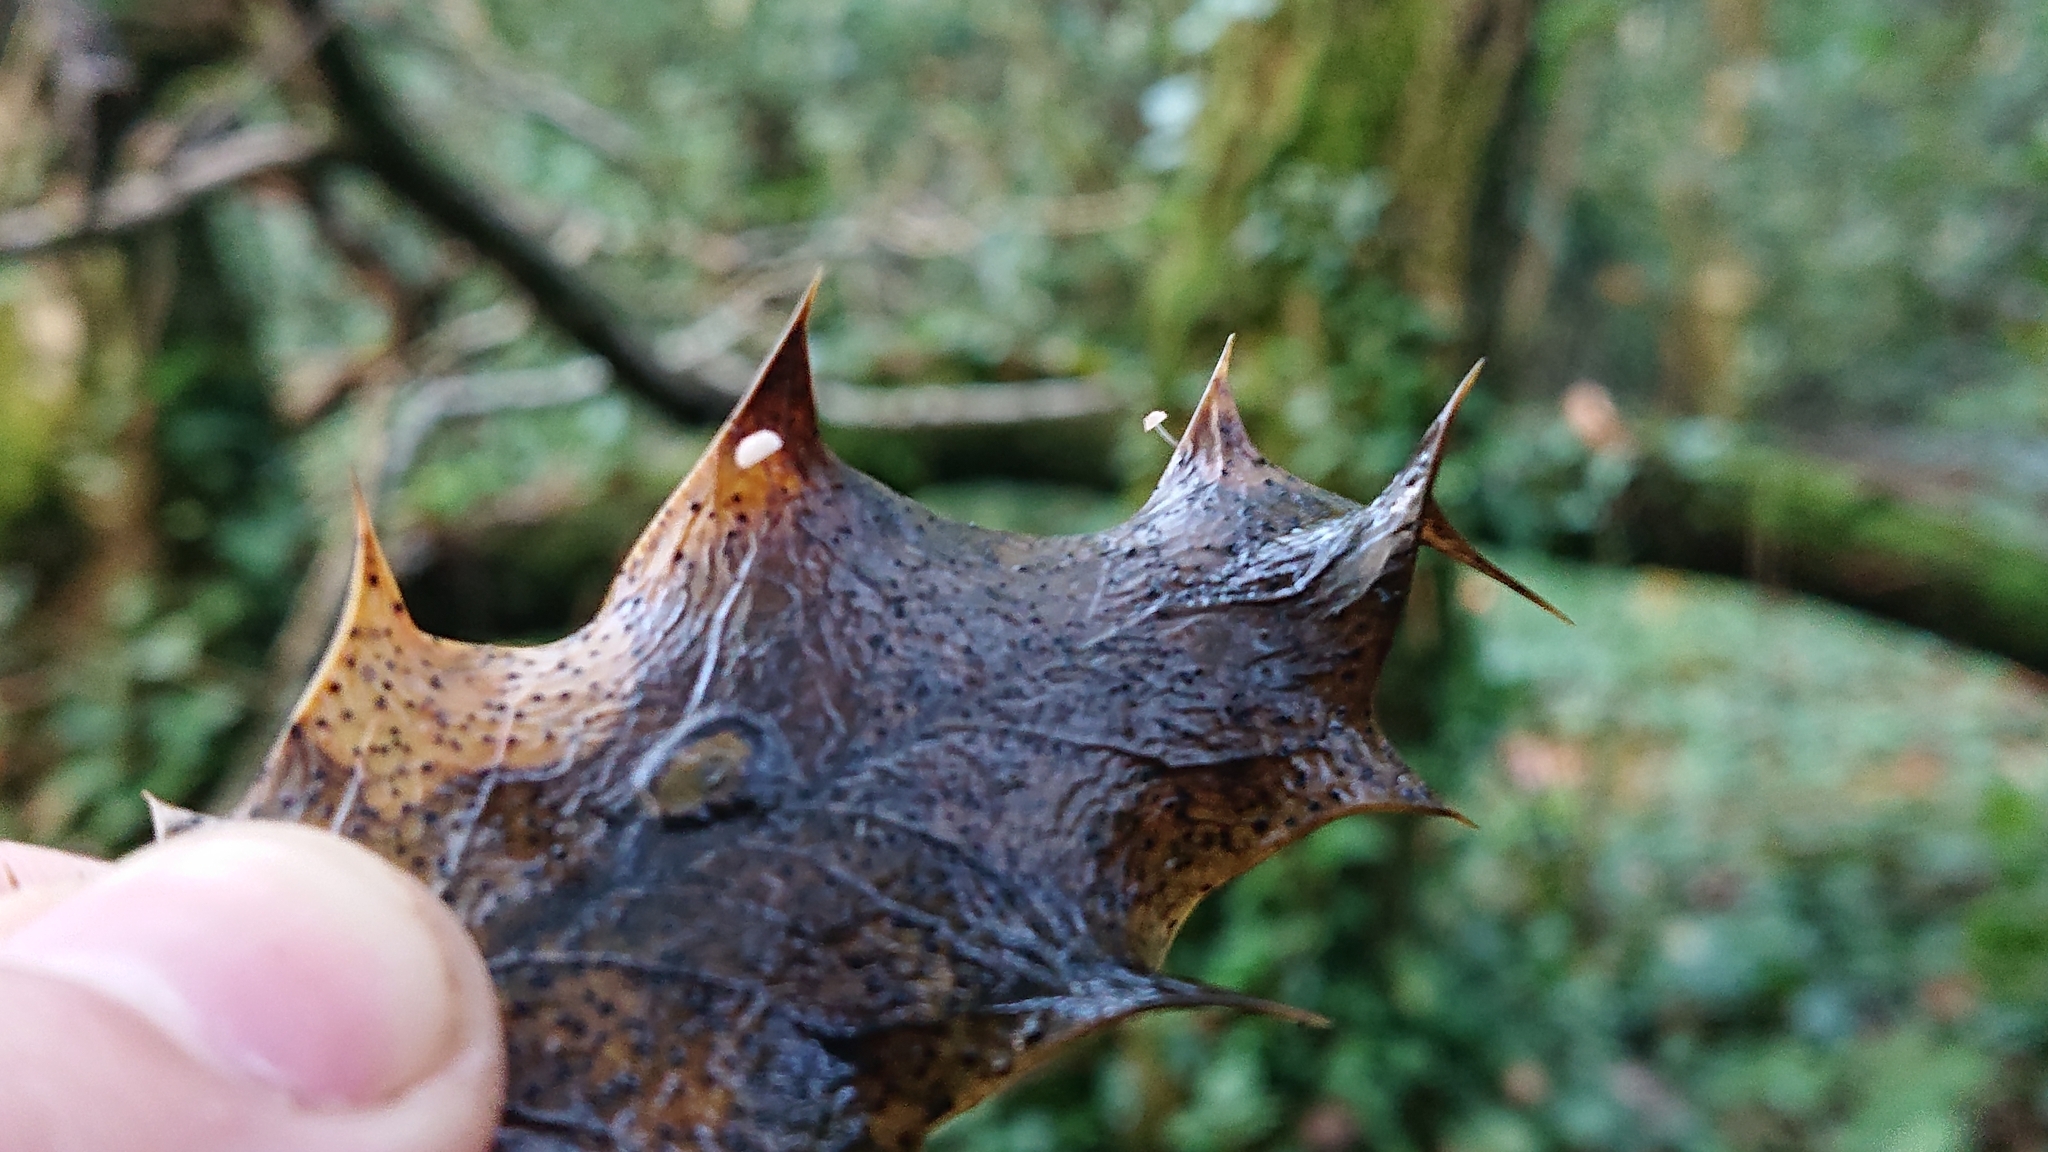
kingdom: Fungi
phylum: Basidiomycota
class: Agaricomycetes
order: Agaricales
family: Marasmiaceae
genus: Marasmius
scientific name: Marasmius hudsonii
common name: Holly parachute
